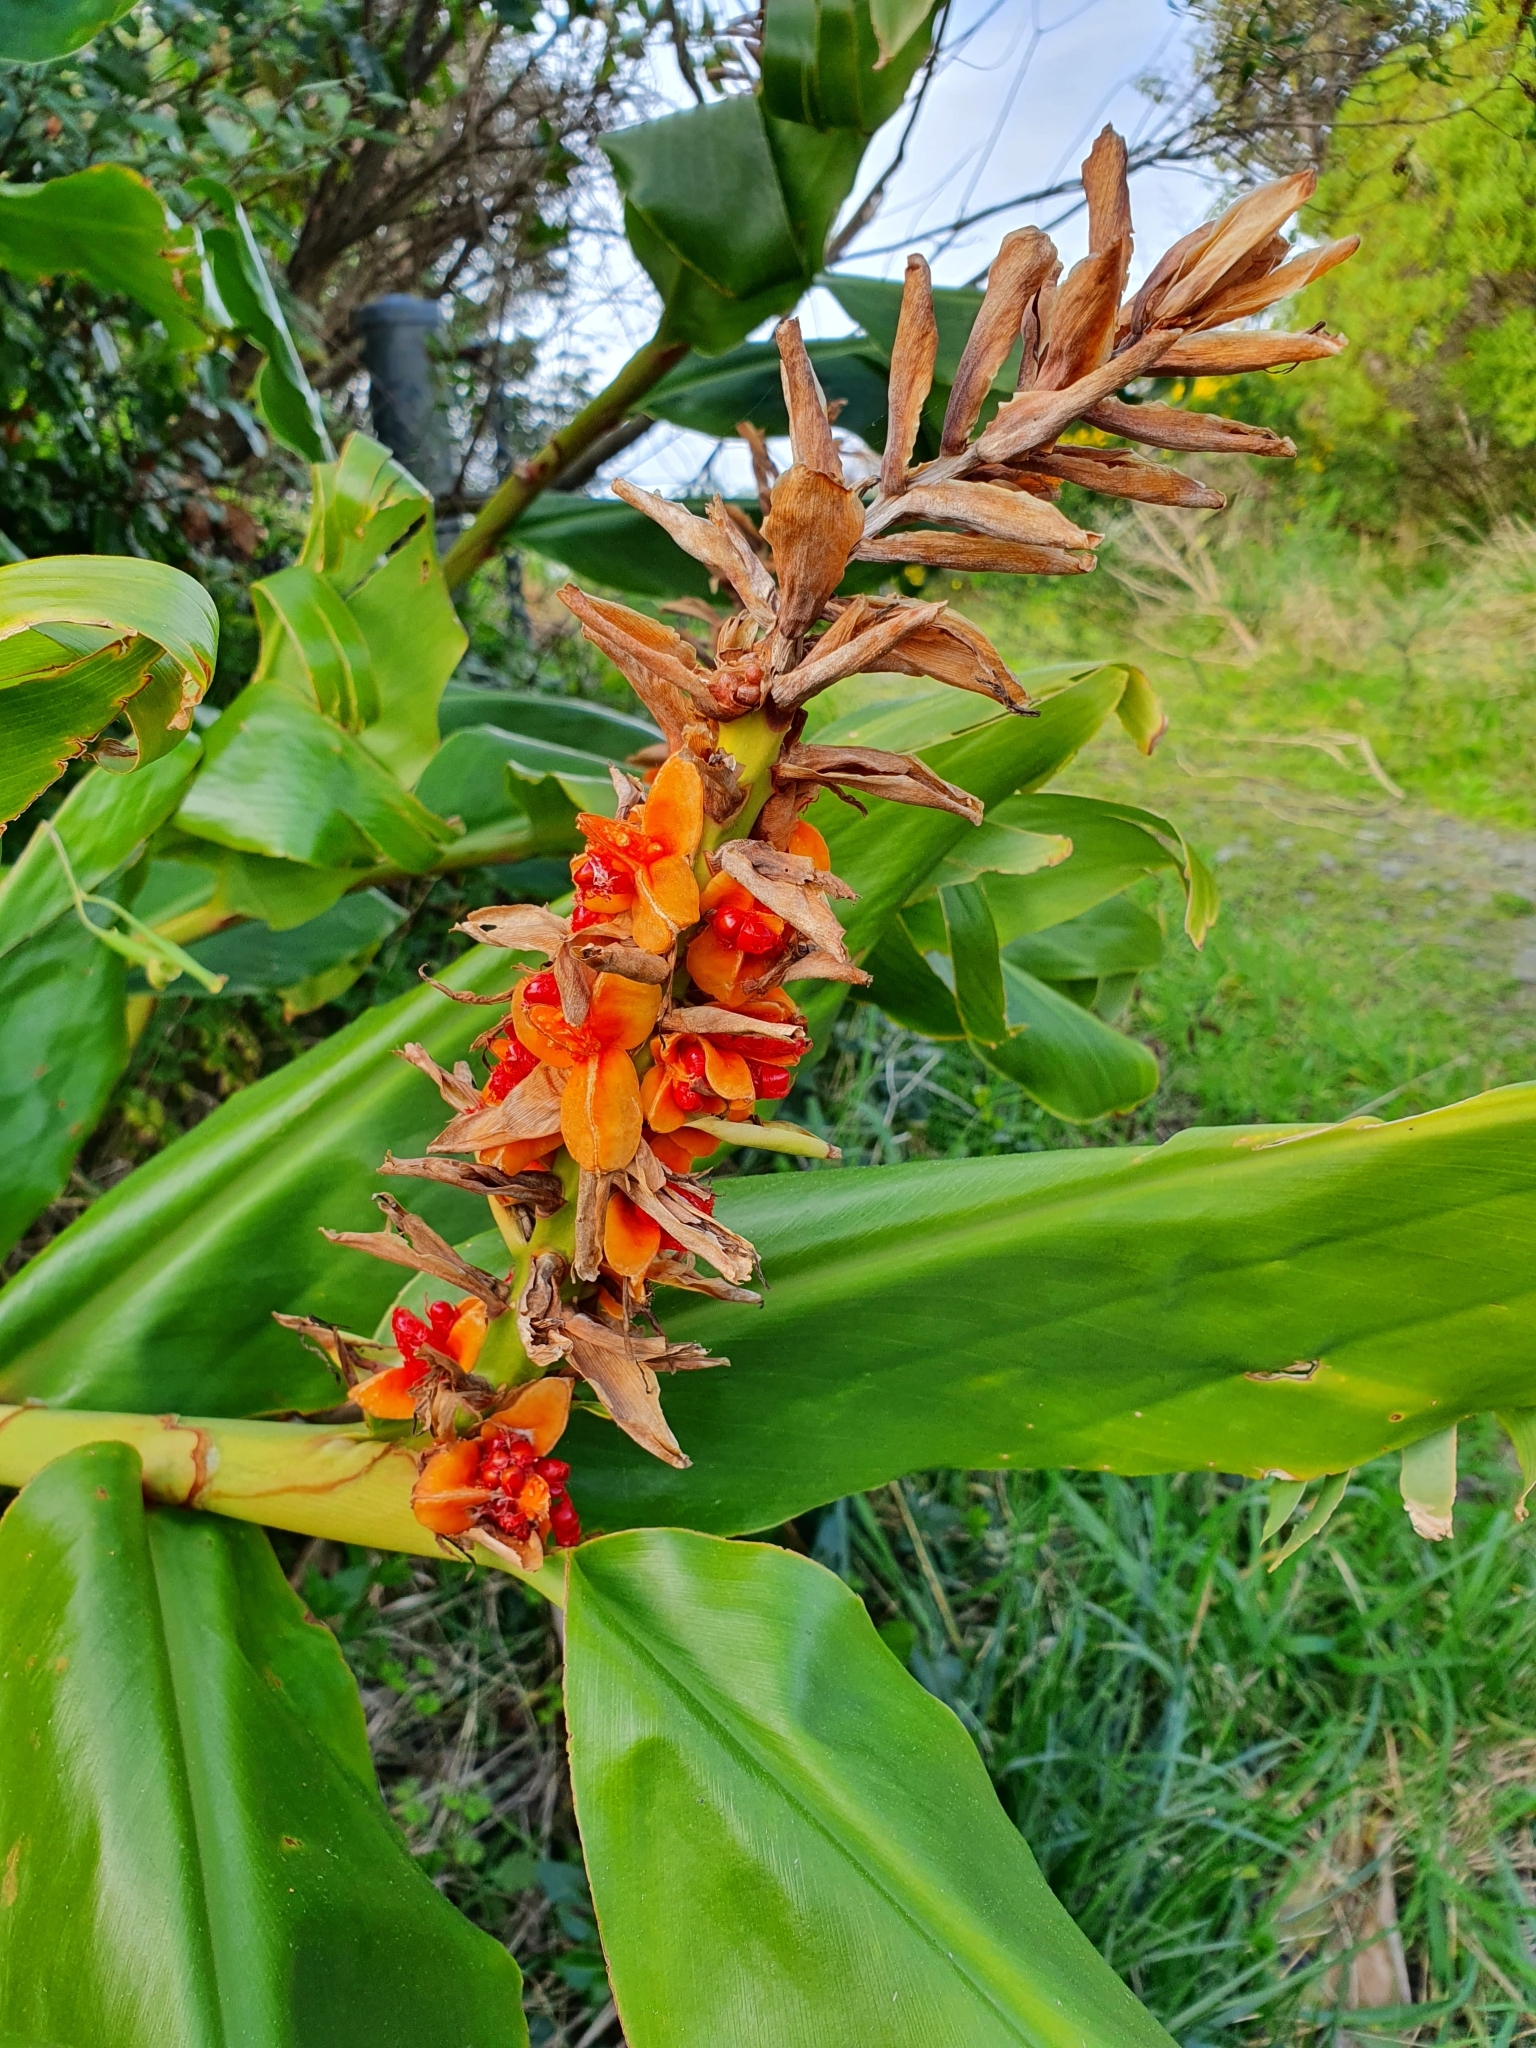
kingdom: Plantae
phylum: Tracheophyta
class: Liliopsida
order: Zingiberales
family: Zingiberaceae
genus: Hedychium
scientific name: Hedychium gardnerianum
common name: Himalayan ginger
